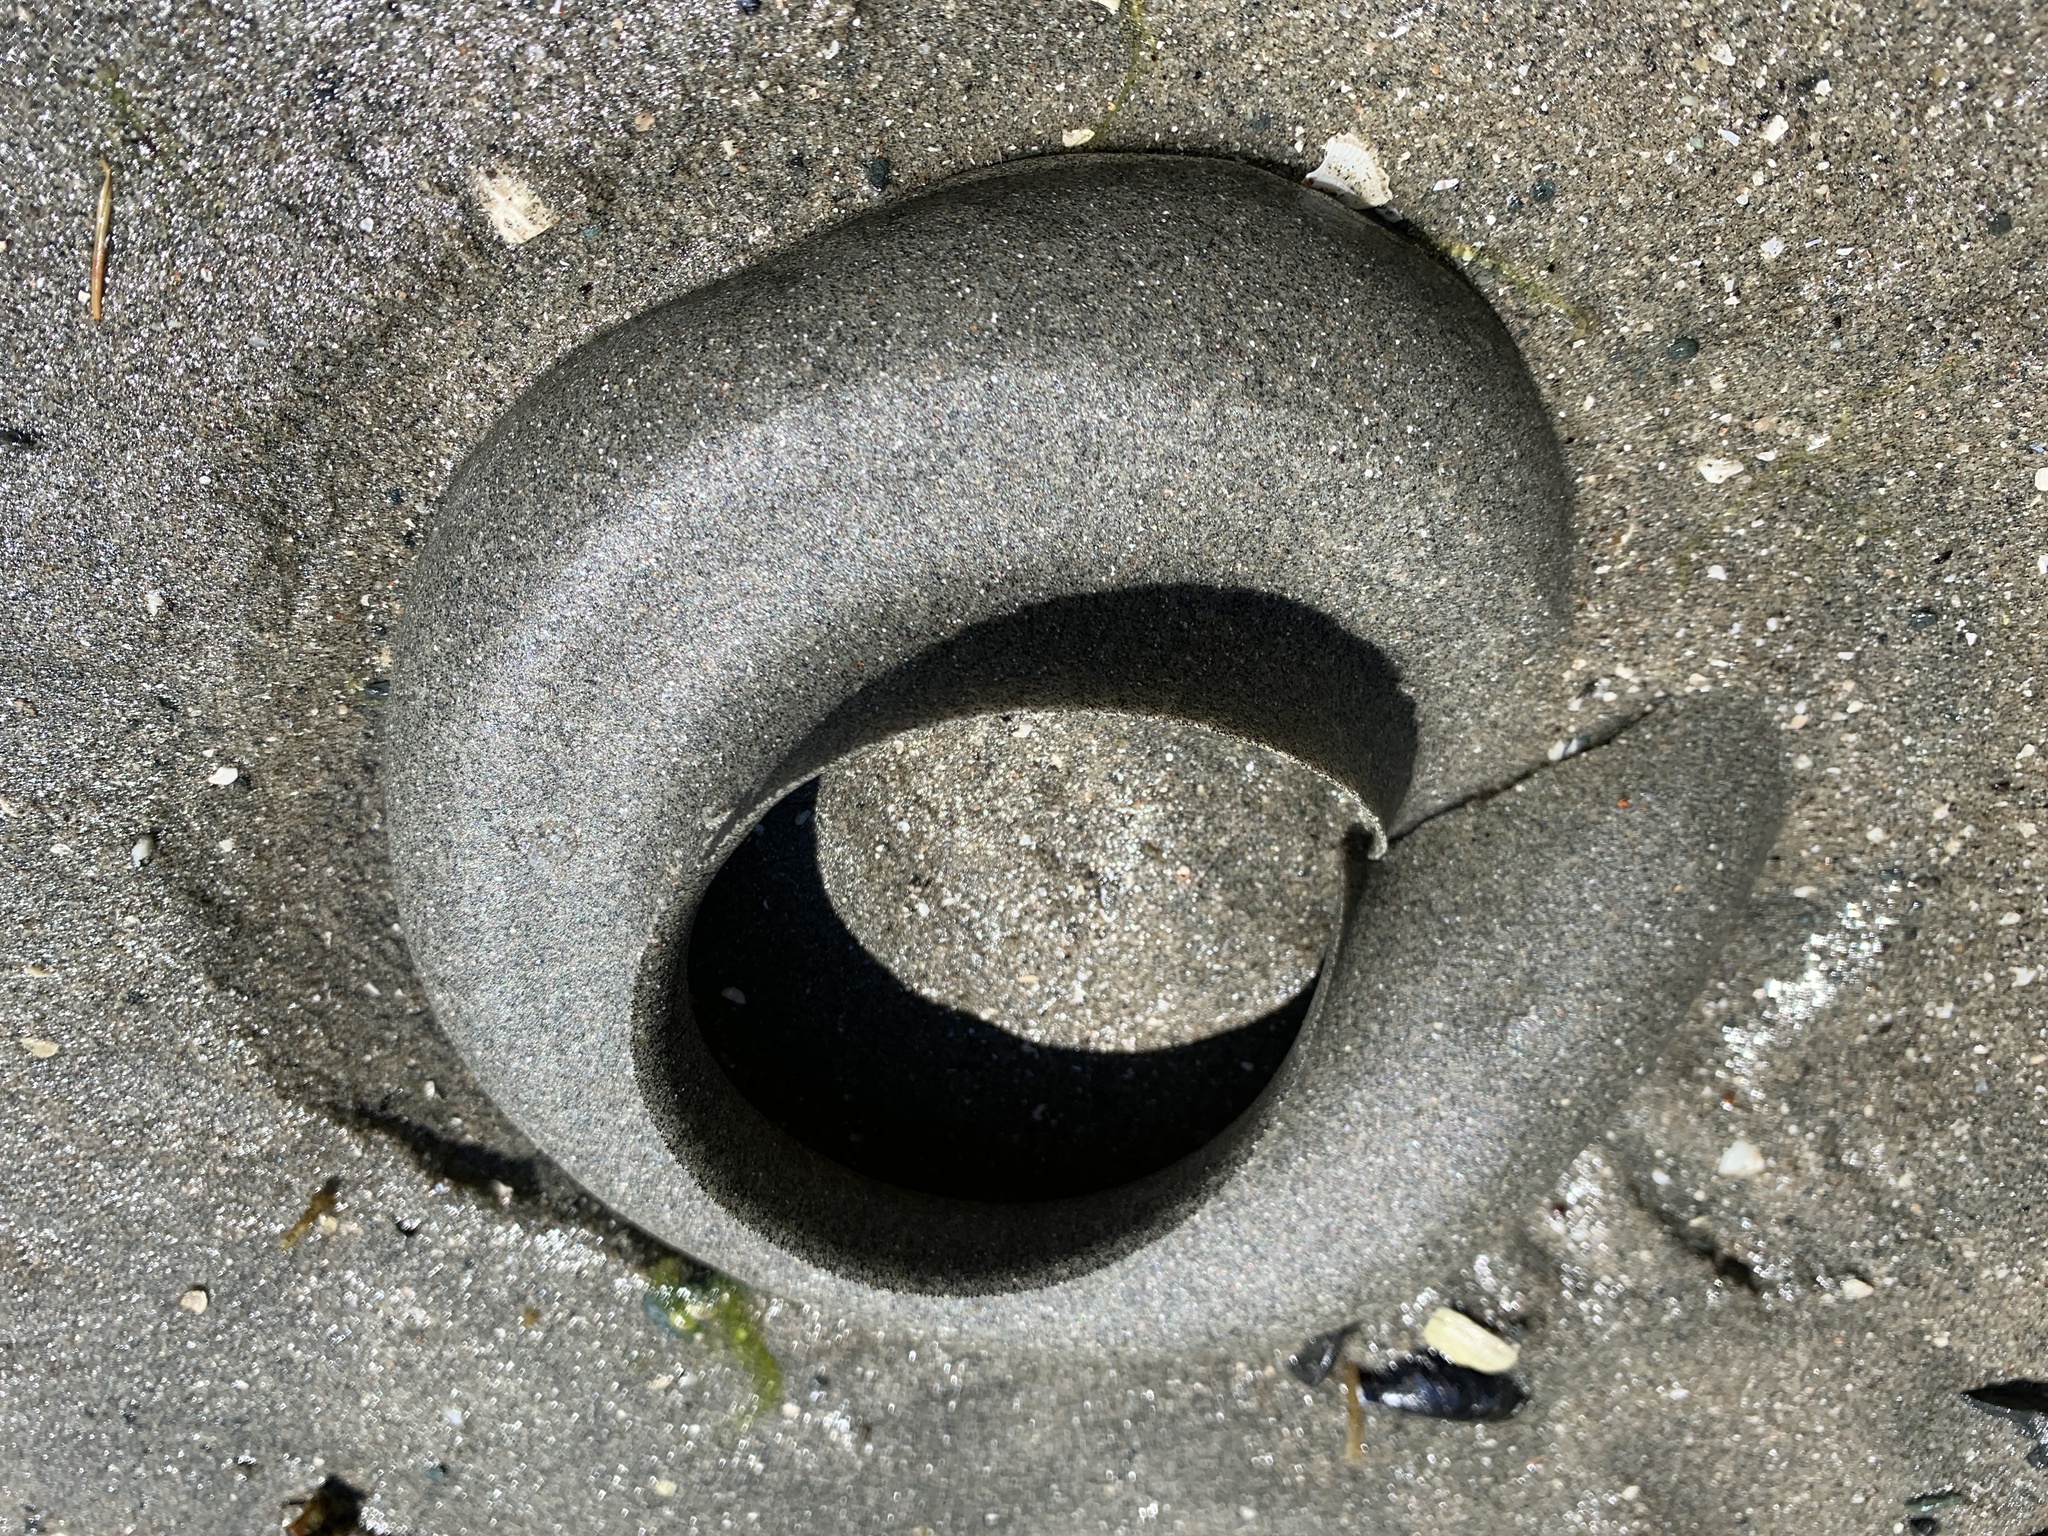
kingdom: Animalia
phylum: Mollusca
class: Gastropoda
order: Littorinimorpha
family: Naticidae
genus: Neverita
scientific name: Neverita lewisii
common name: Lewis' moonsnail
